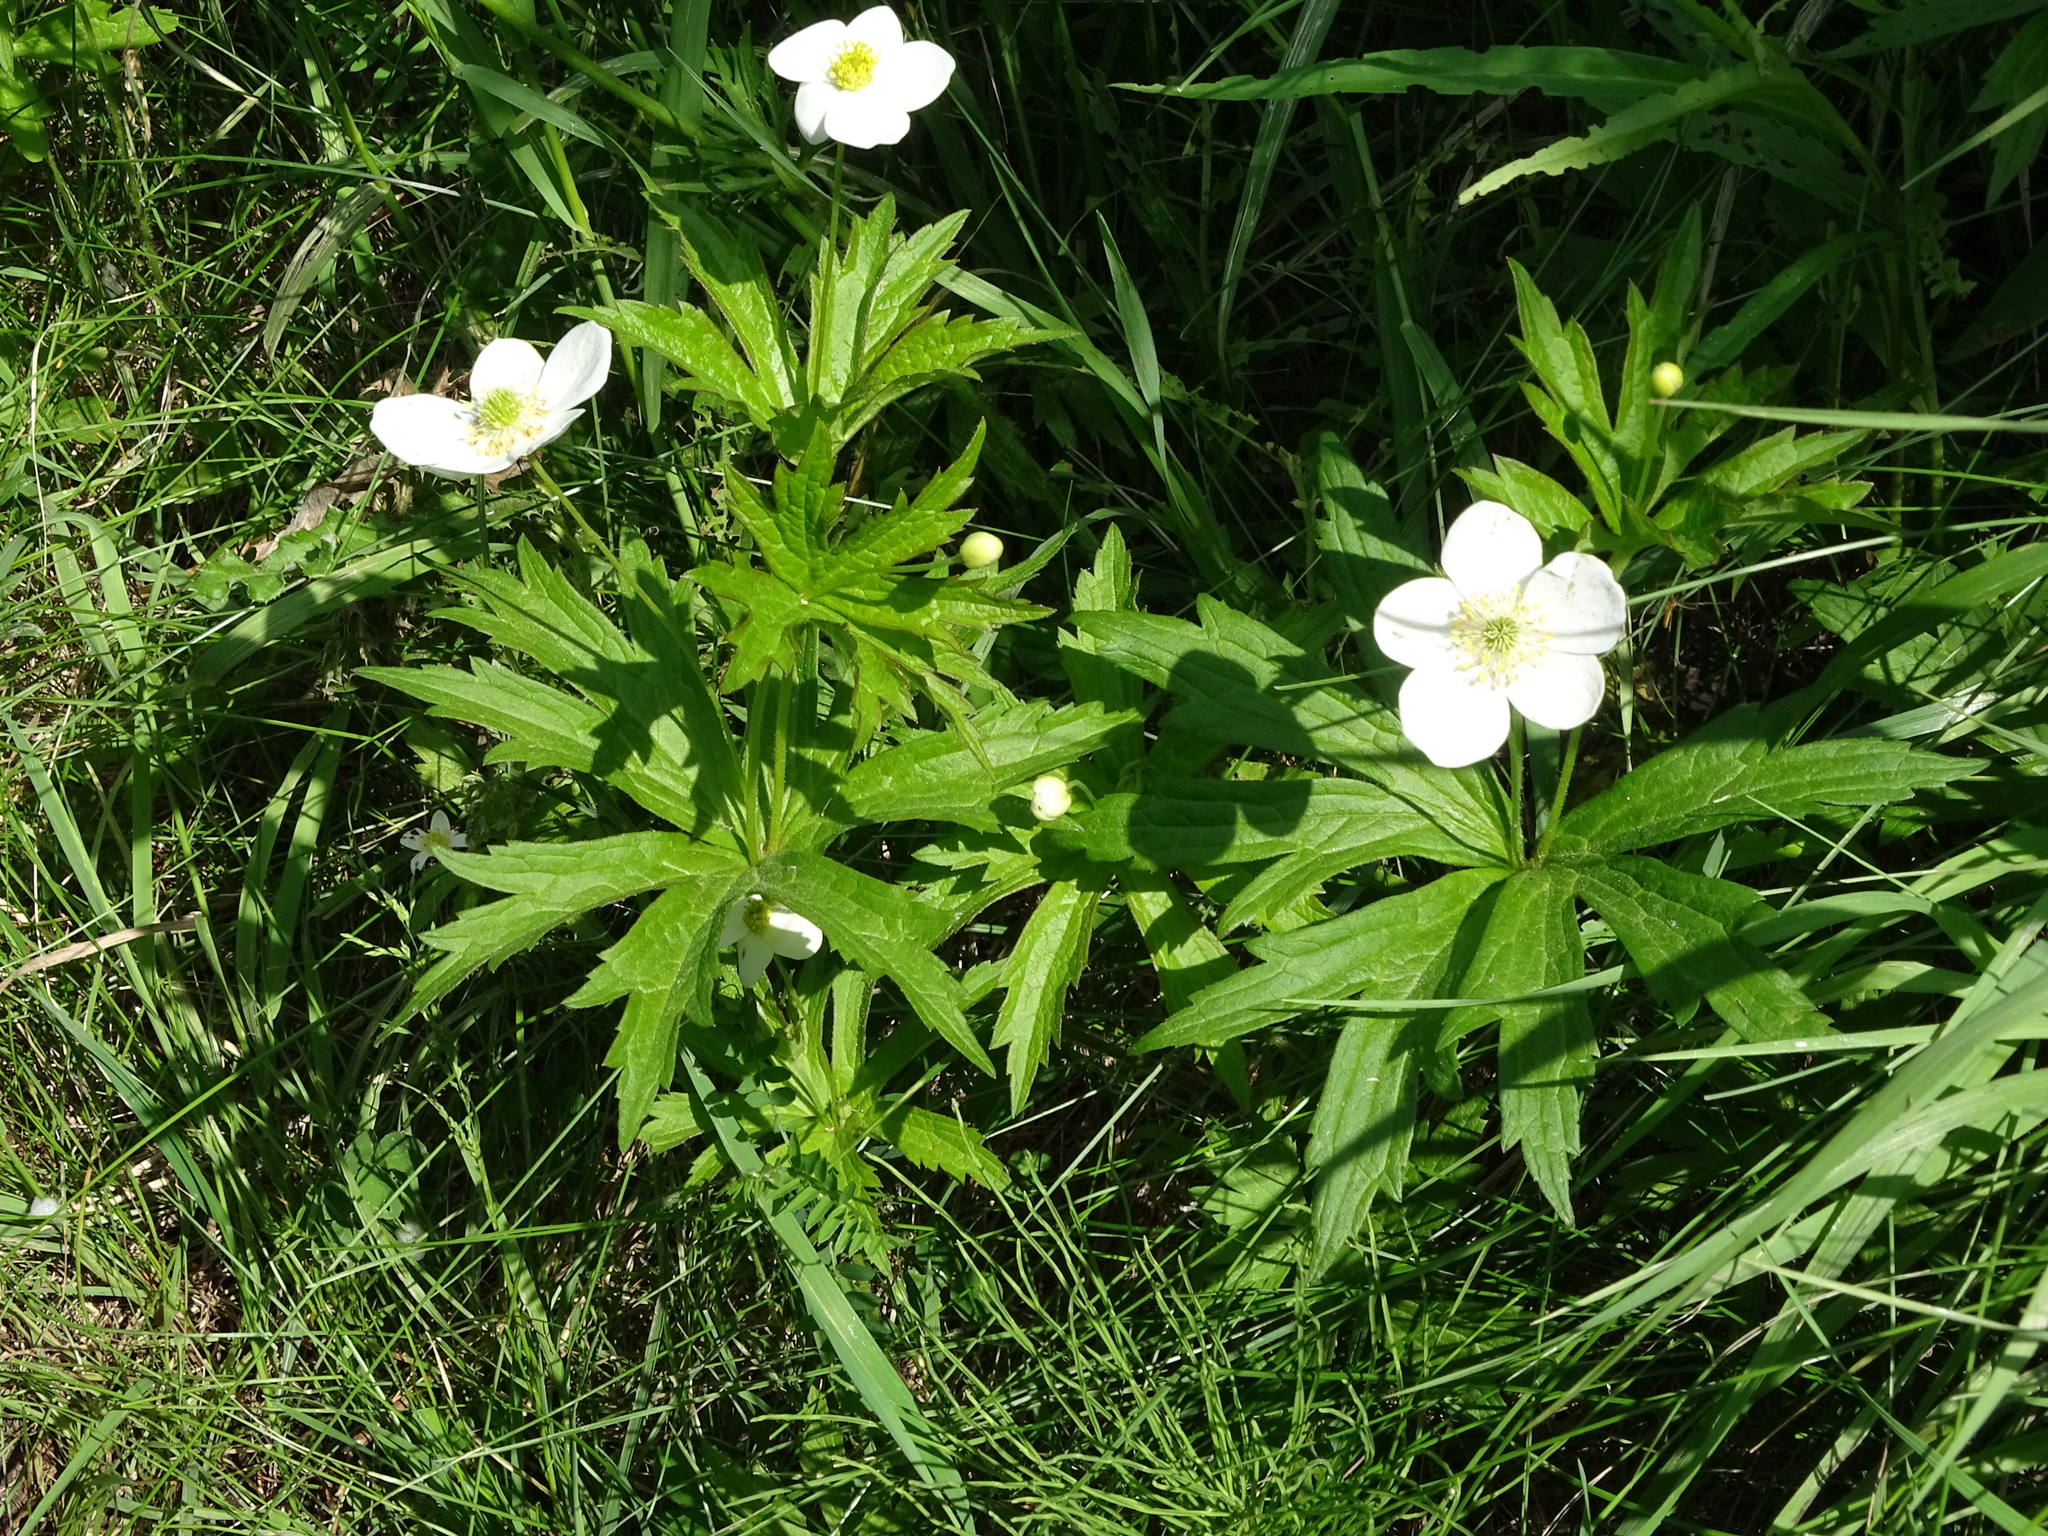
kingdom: Plantae
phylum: Tracheophyta
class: Magnoliopsida
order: Ranunculales
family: Ranunculaceae
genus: Anemonastrum
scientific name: Anemonastrum canadense
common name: Canada anemone
